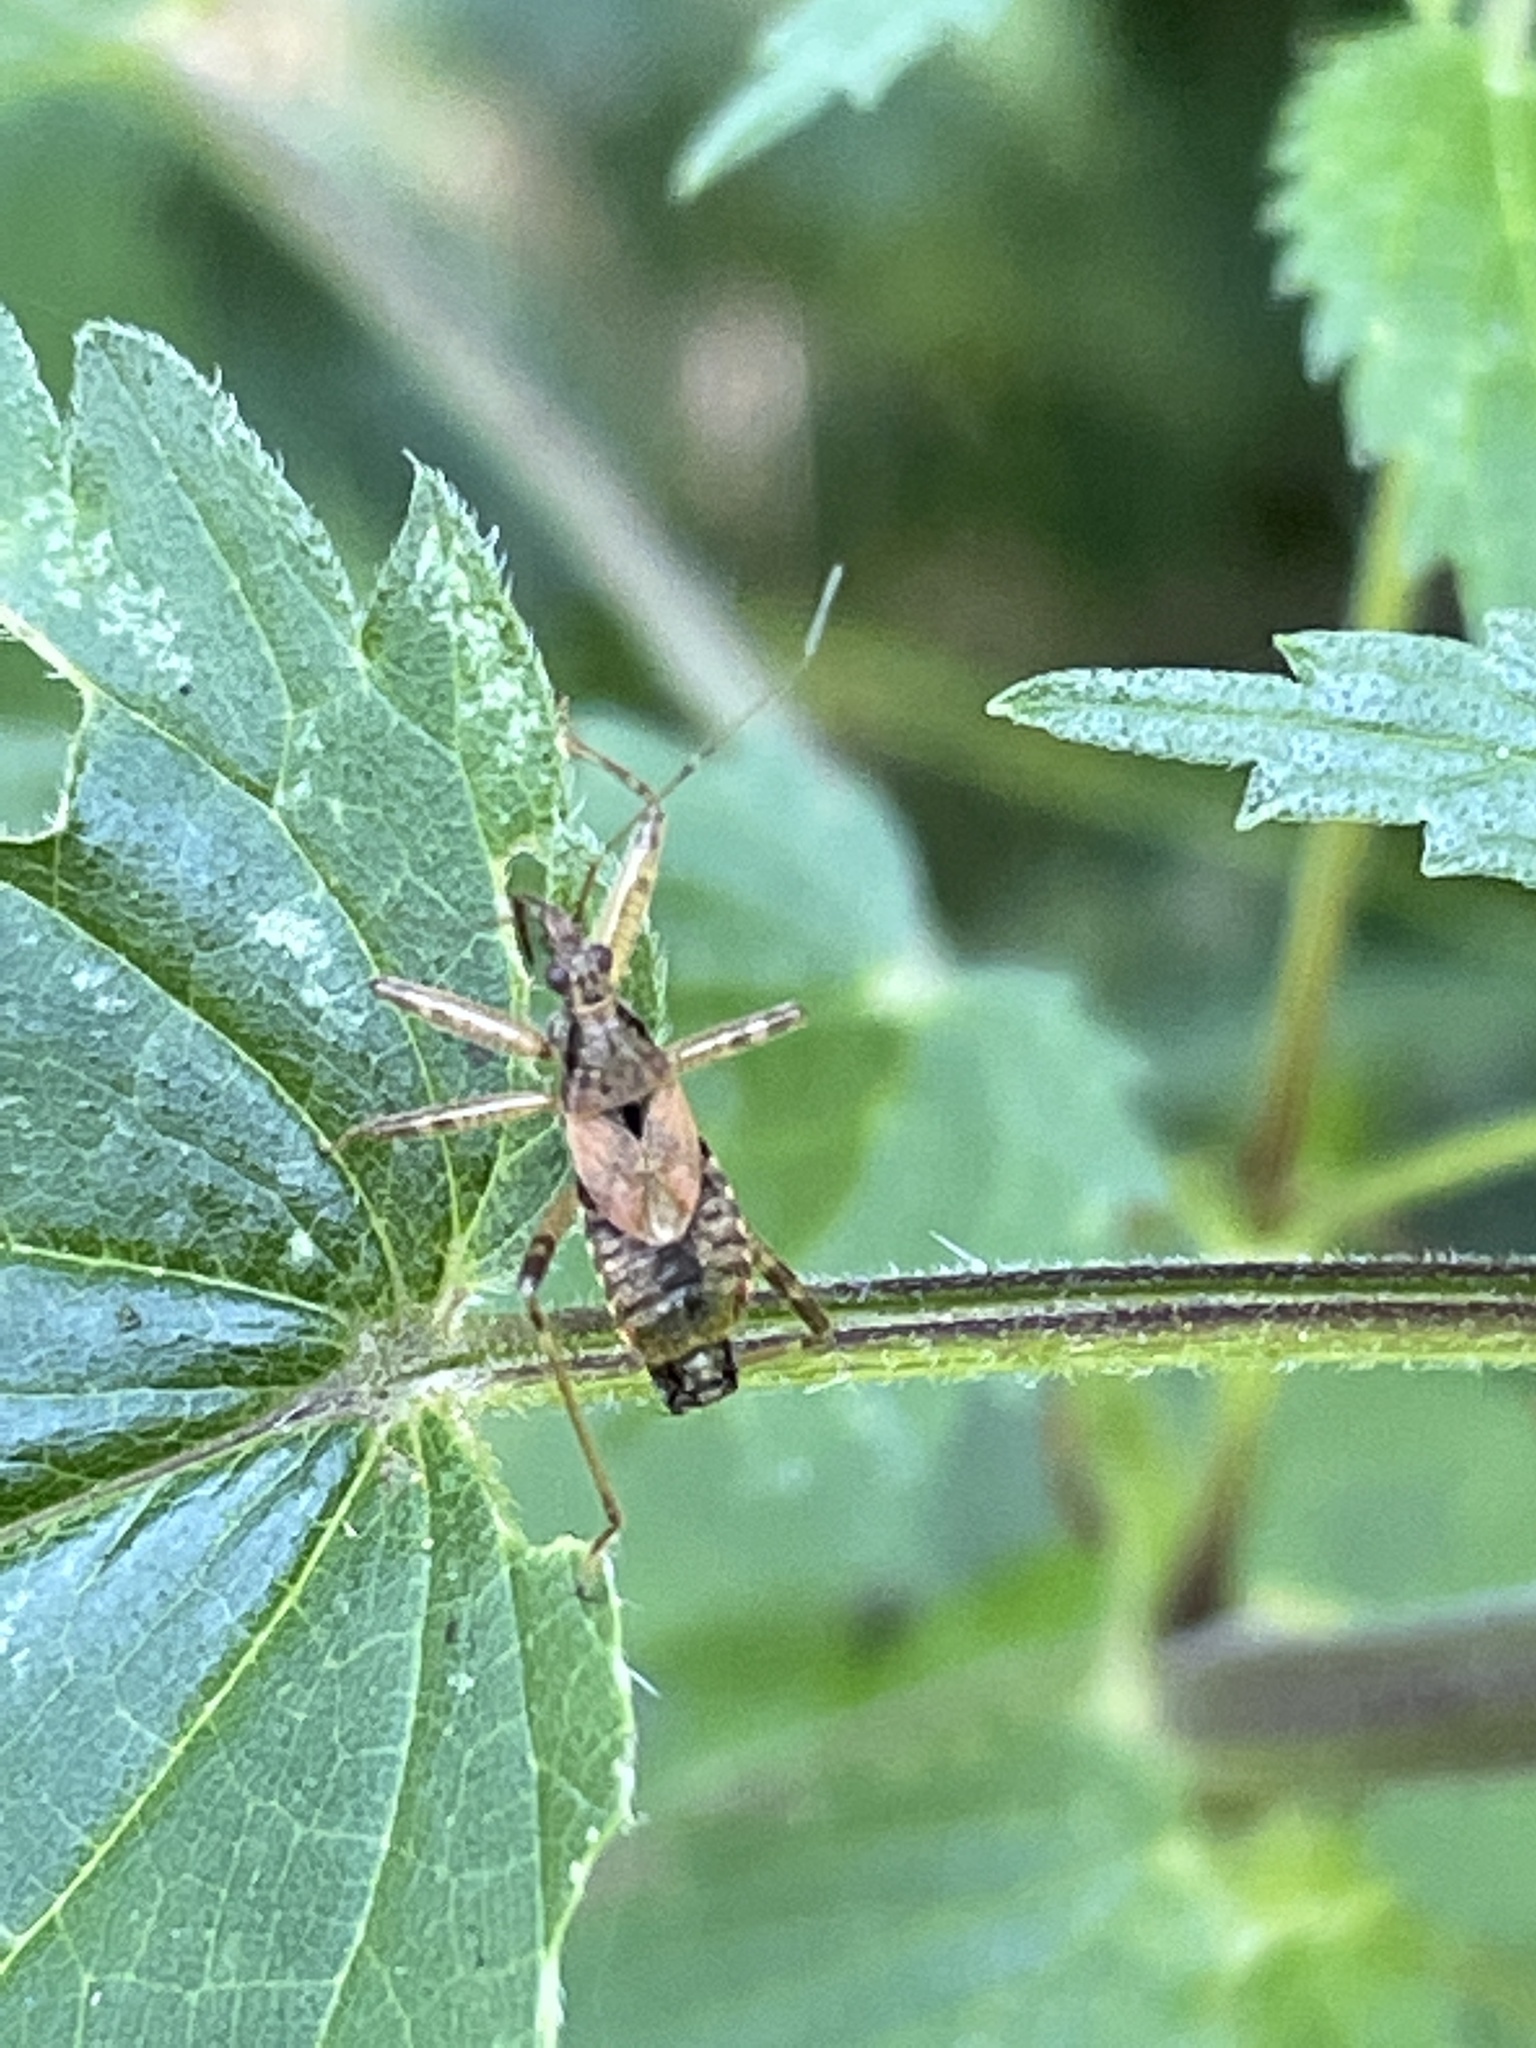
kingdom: Animalia
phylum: Arthropoda
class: Insecta
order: Hemiptera
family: Nabidae
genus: Himacerus
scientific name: Himacerus apterus
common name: Tree damsel bug
